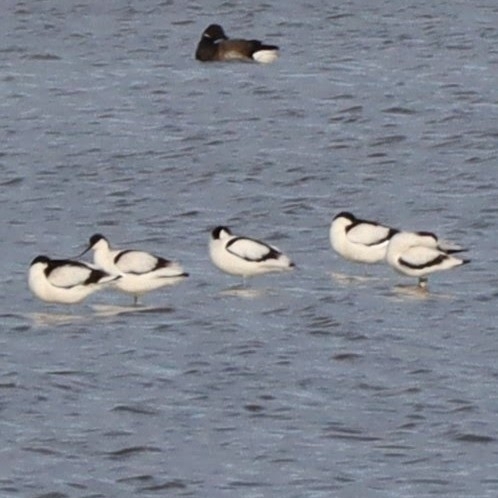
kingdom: Animalia
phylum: Chordata
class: Aves
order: Charadriiformes
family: Recurvirostridae
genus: Recurvirostra
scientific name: Recurvirostra avosetta
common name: Pied avocet
